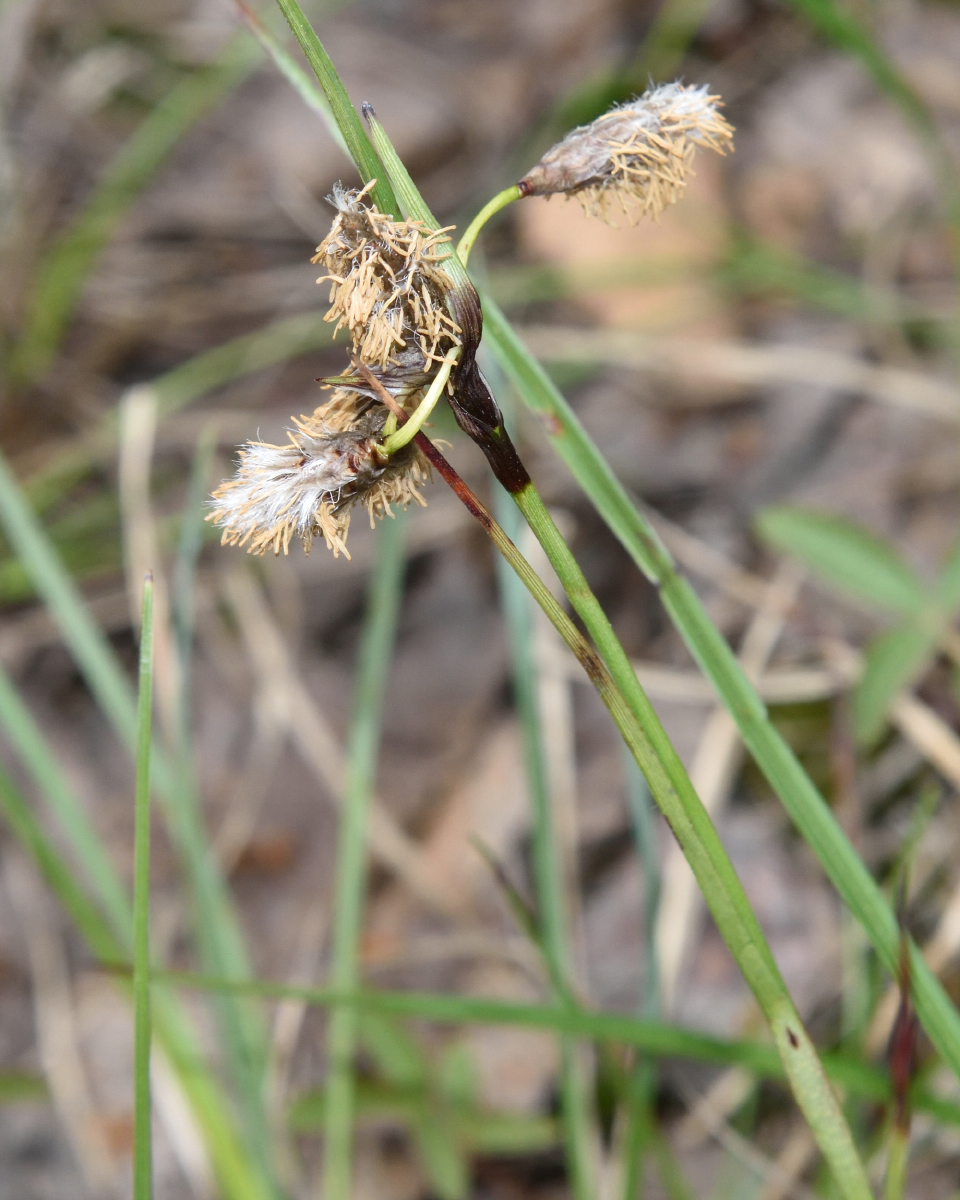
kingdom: Plantae
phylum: Tracheophyta
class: Liliopsida
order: Poales
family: Cyperaceae
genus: Eriophorum
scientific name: Eriophorum angustifolium
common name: Common cottongrass
